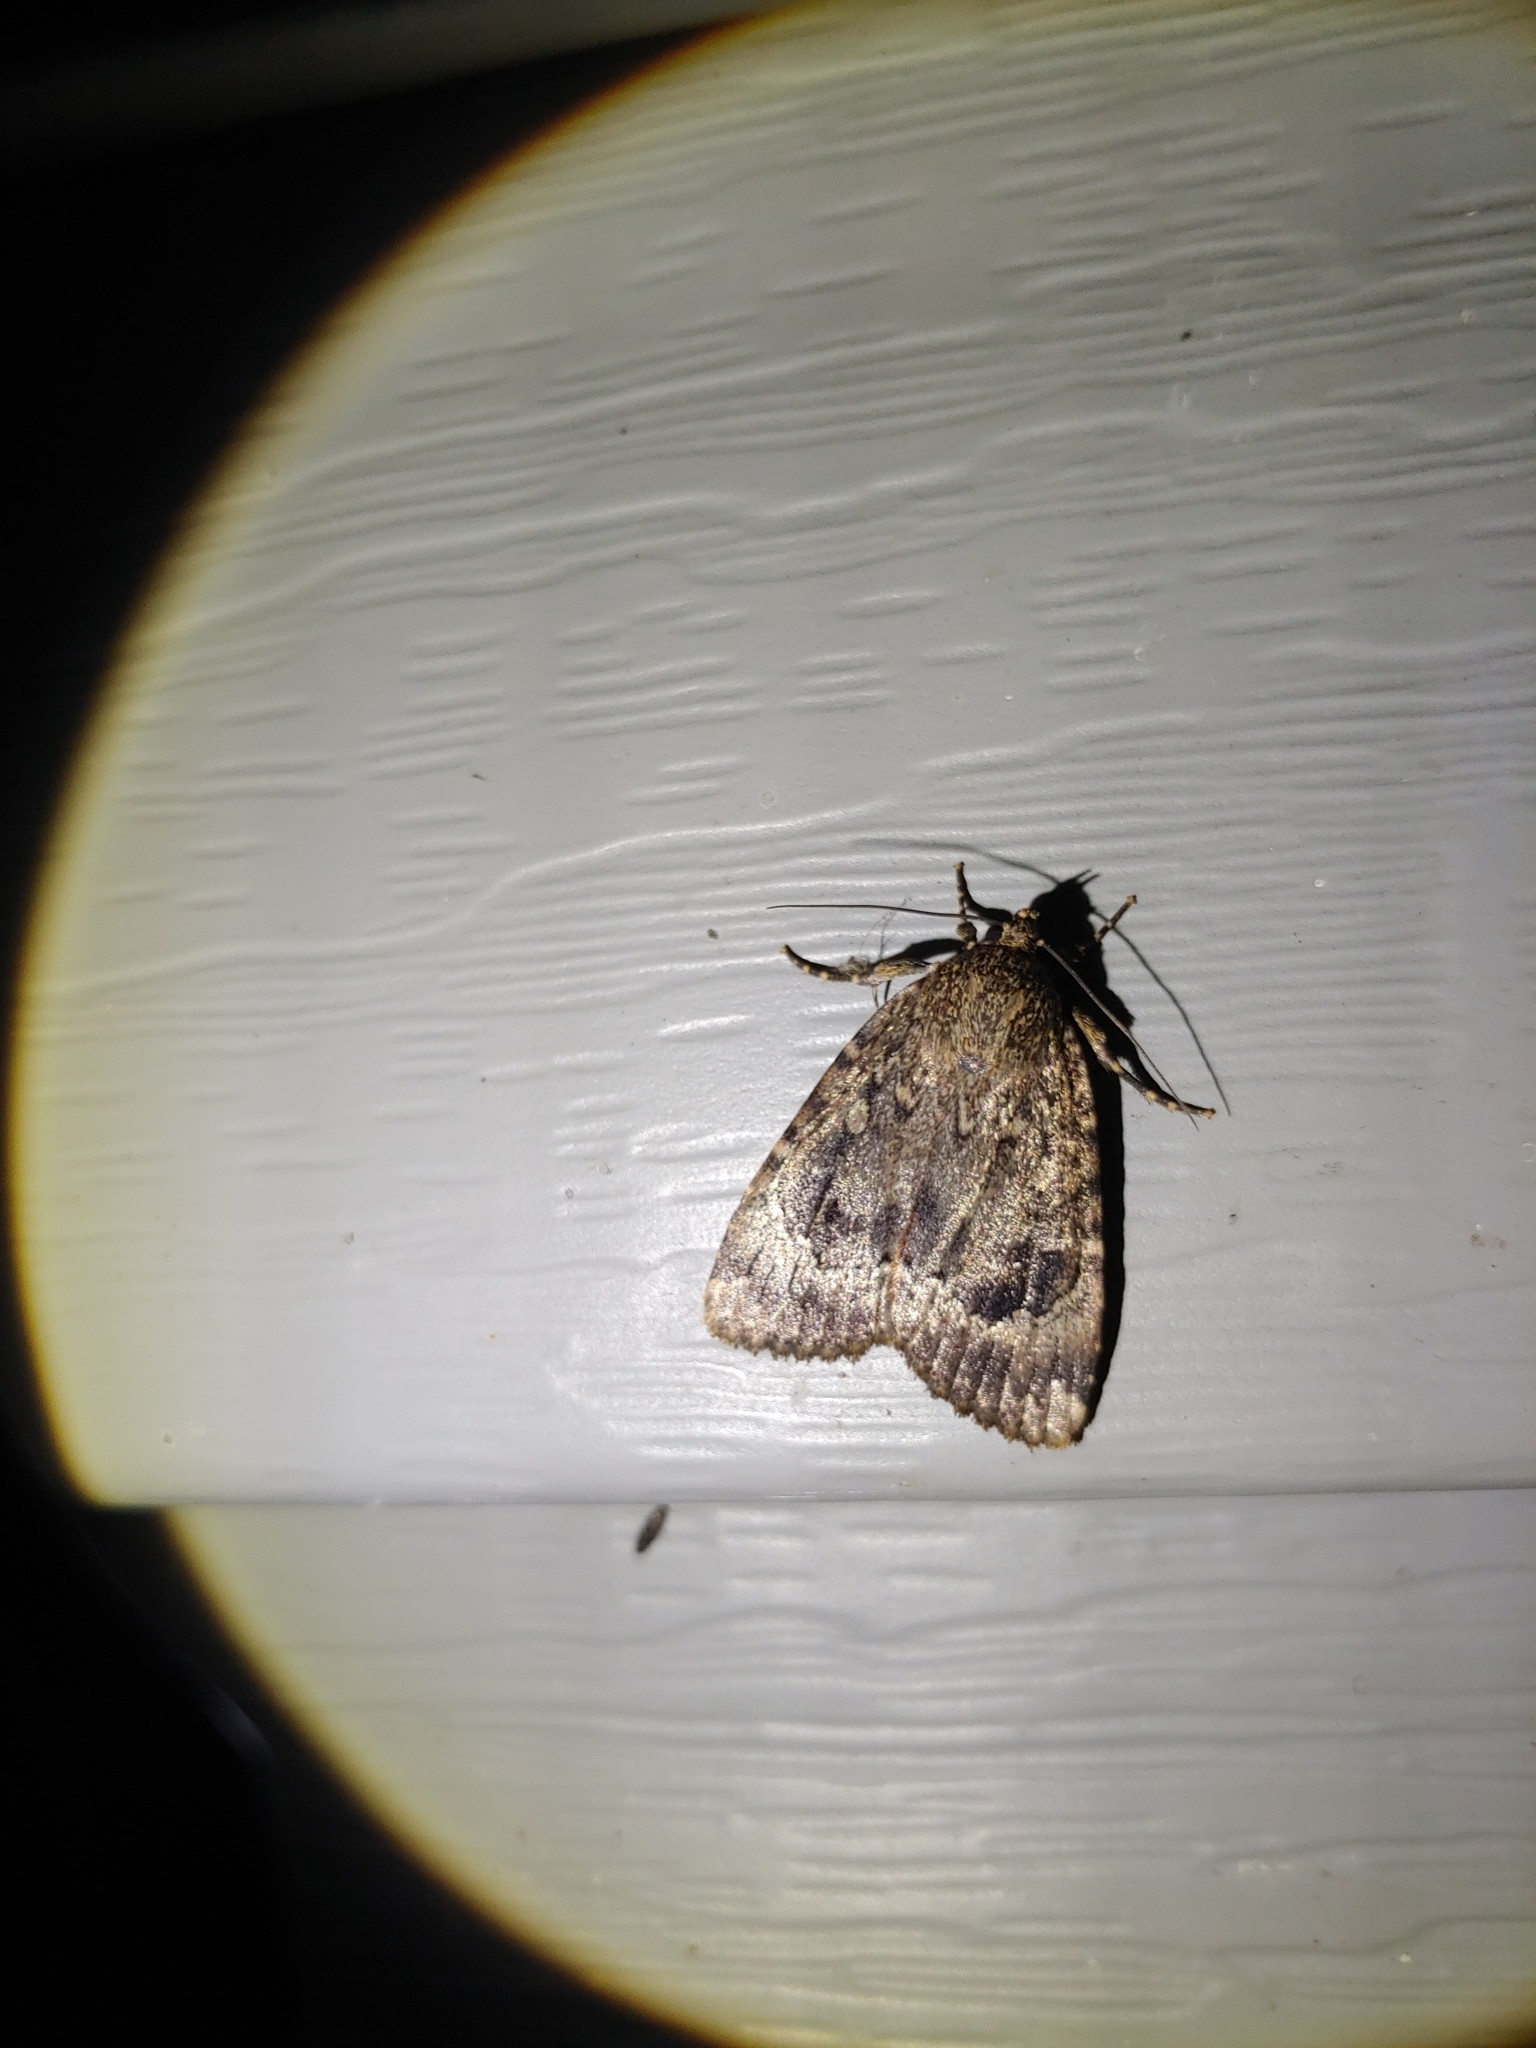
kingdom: Animalia
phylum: Arthropoda
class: Insecta
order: Lepidoptera
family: Noctuidae
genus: Amphipyra
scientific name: Amphipyra pyramidoides
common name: American copper underwing
